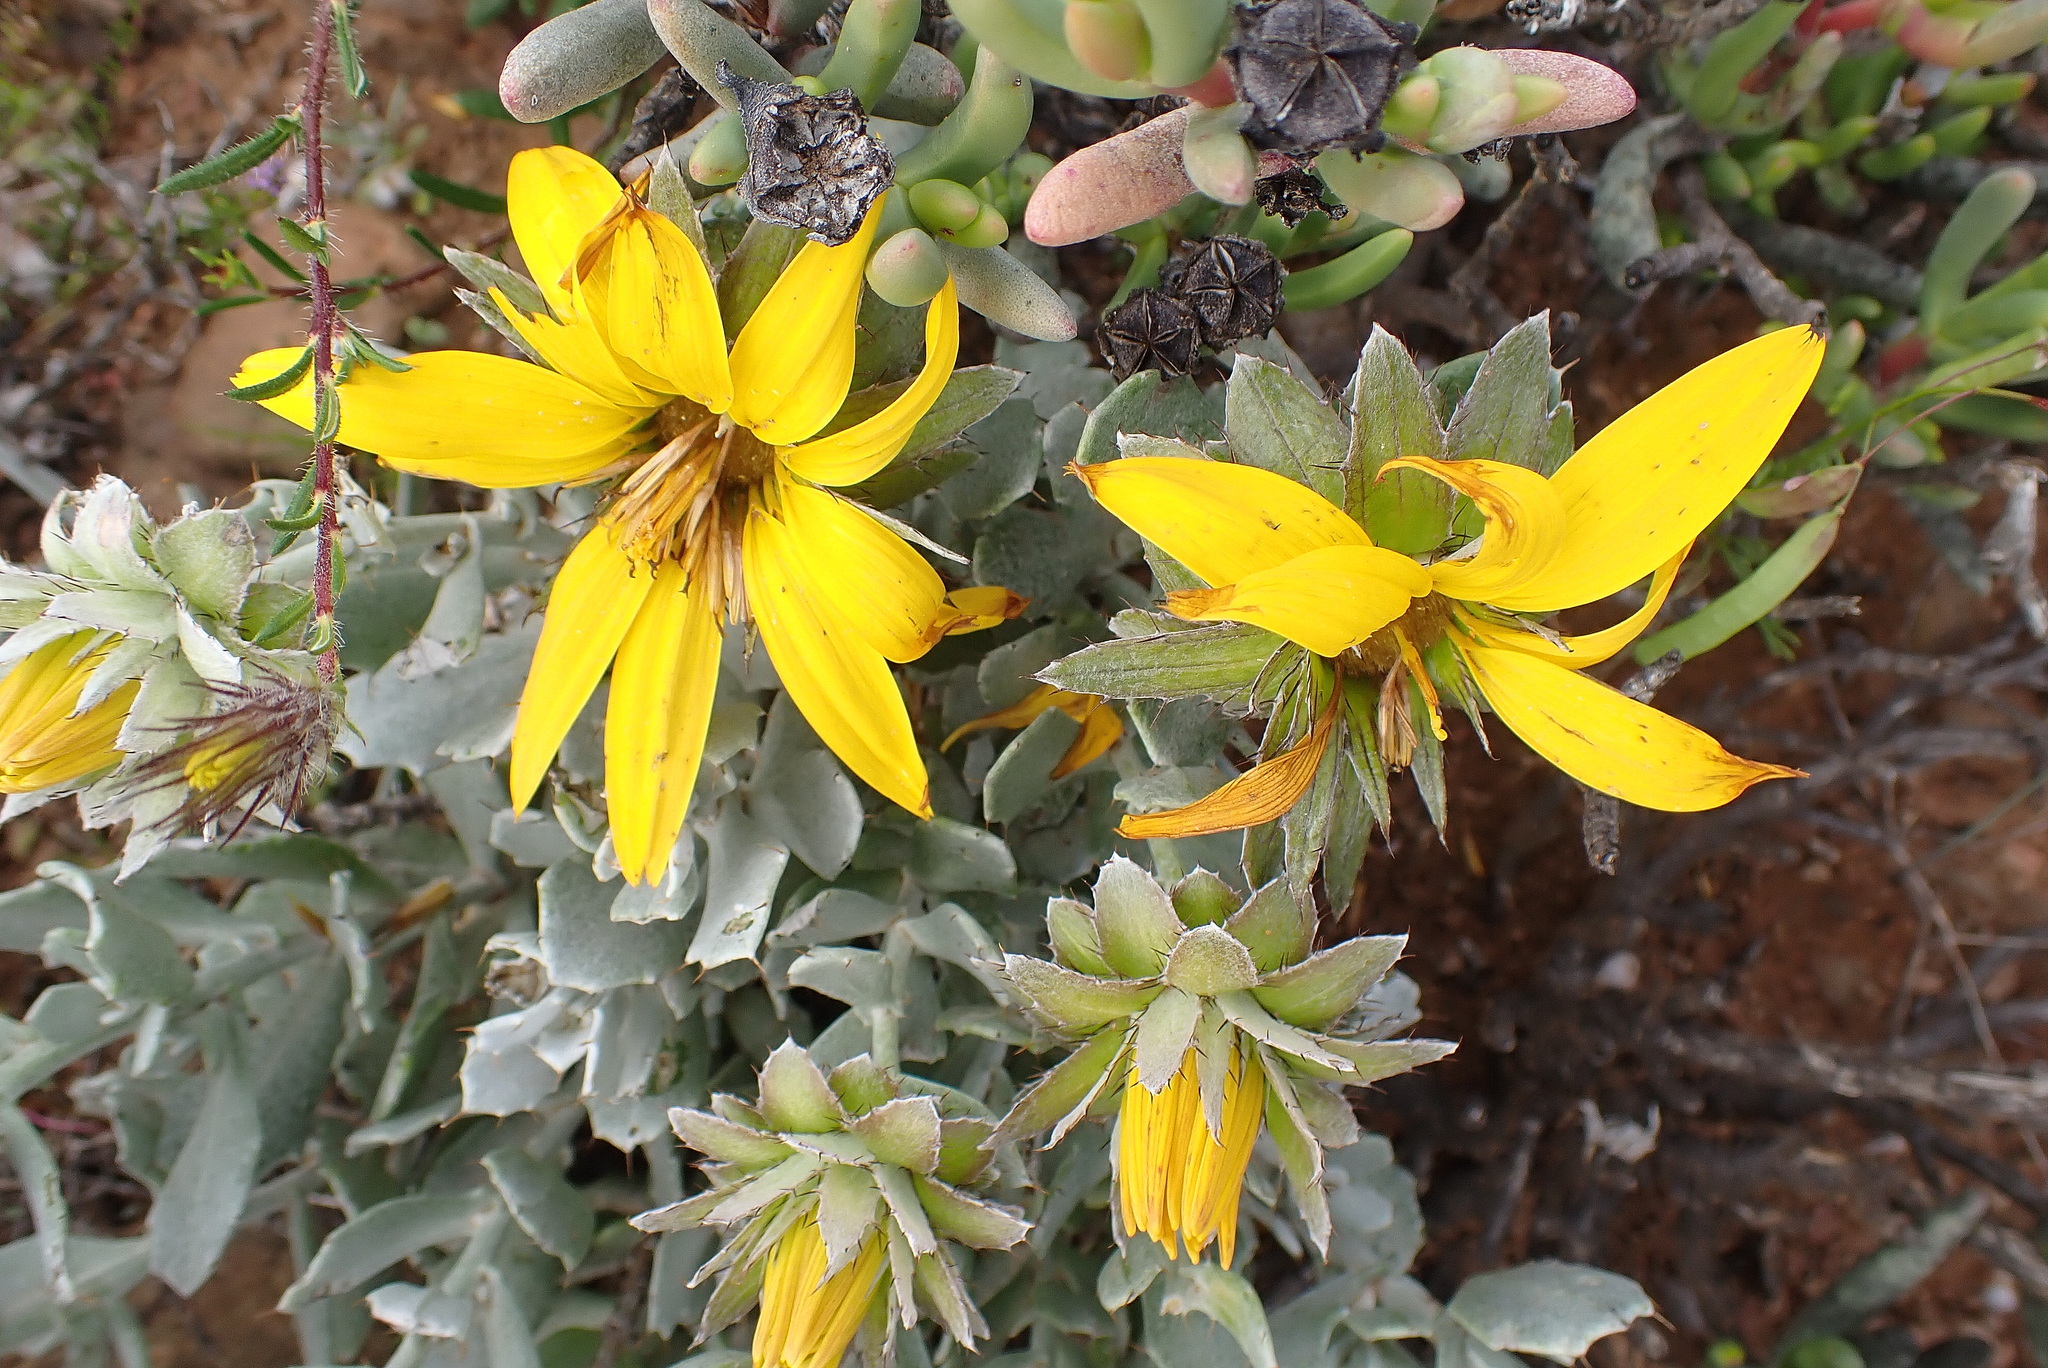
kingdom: Plantae
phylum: Tracheophyta
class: Magnoliopsida
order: Asterales
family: Asteraceae
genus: Berkheya
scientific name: Berkheya cuneata
